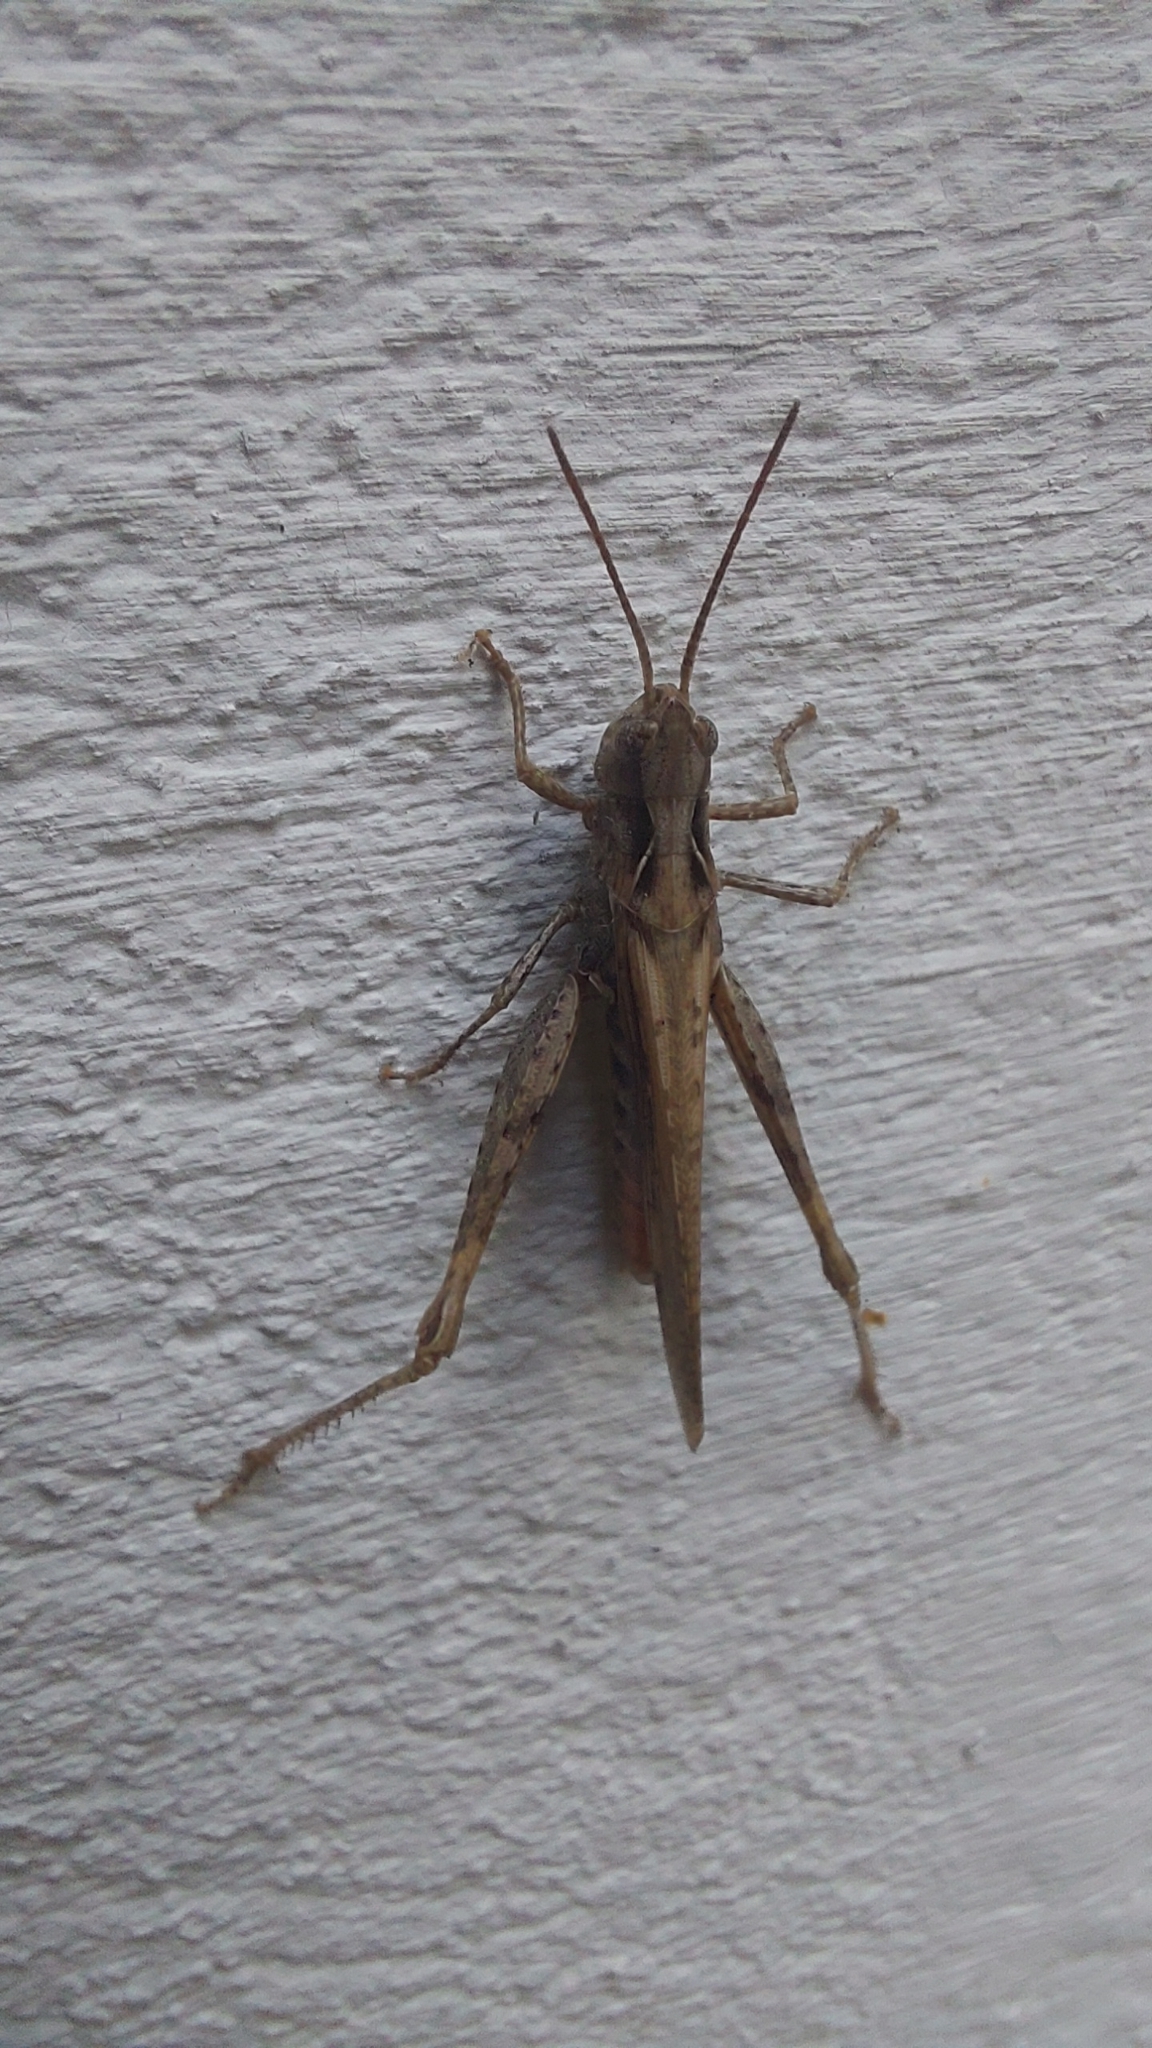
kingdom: Animalia
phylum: Arthropoda
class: Insecta
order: Orthoptera
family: Acrididae
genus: Chorthippus
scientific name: Chorthippus brunneus
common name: Field grasshopper
